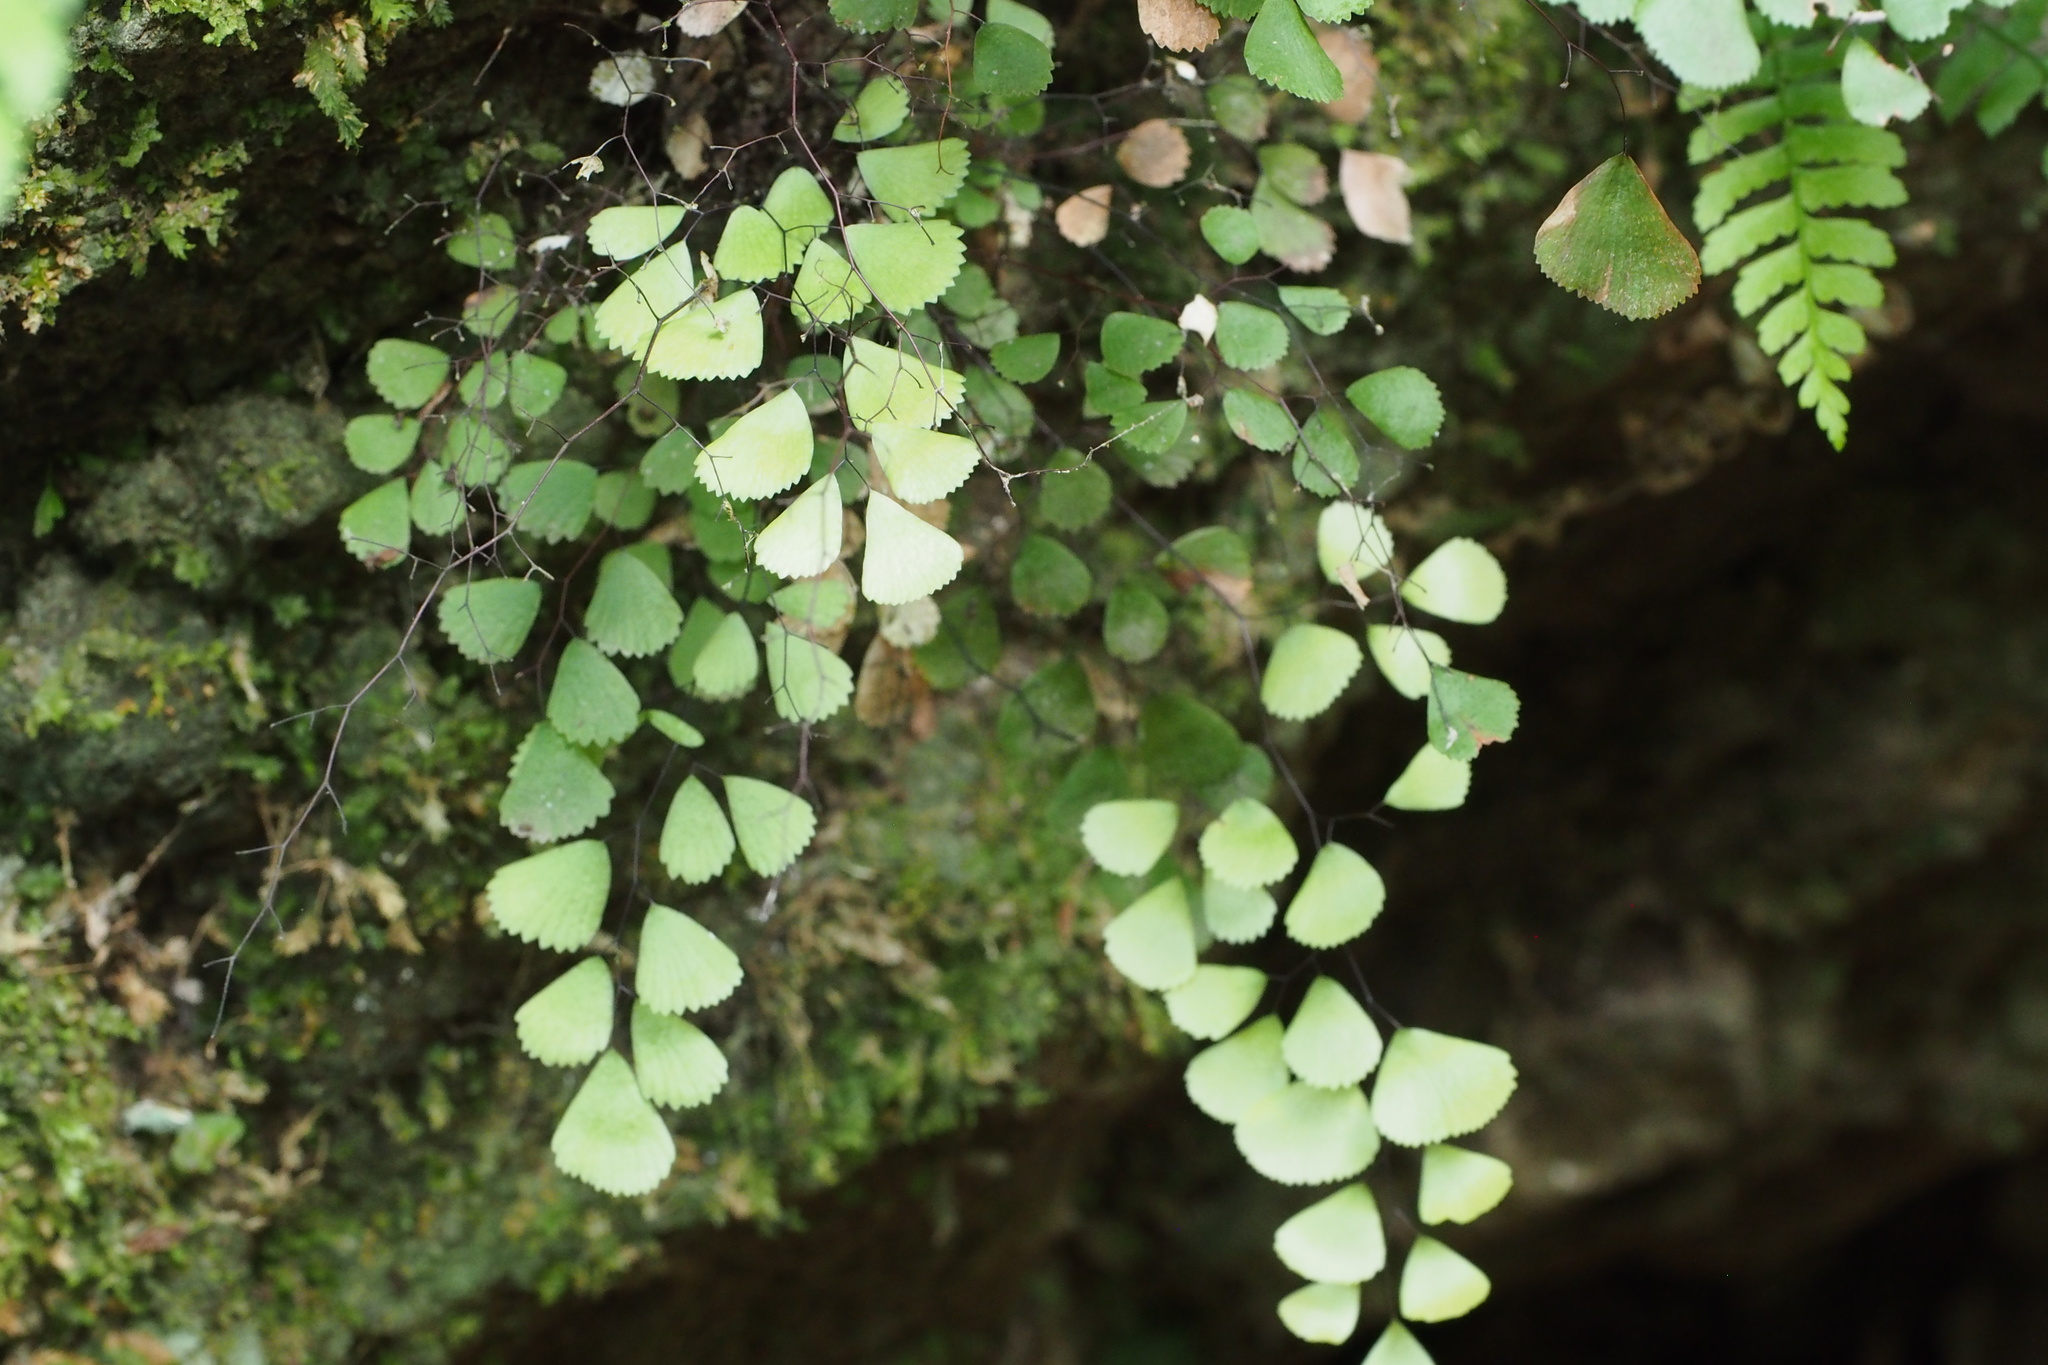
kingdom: Plantae
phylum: Tracheophyta
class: Polypodiopsida
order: Polypodiales
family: Pteridaceae
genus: Adiantum
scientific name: Adiantum monochlamys
